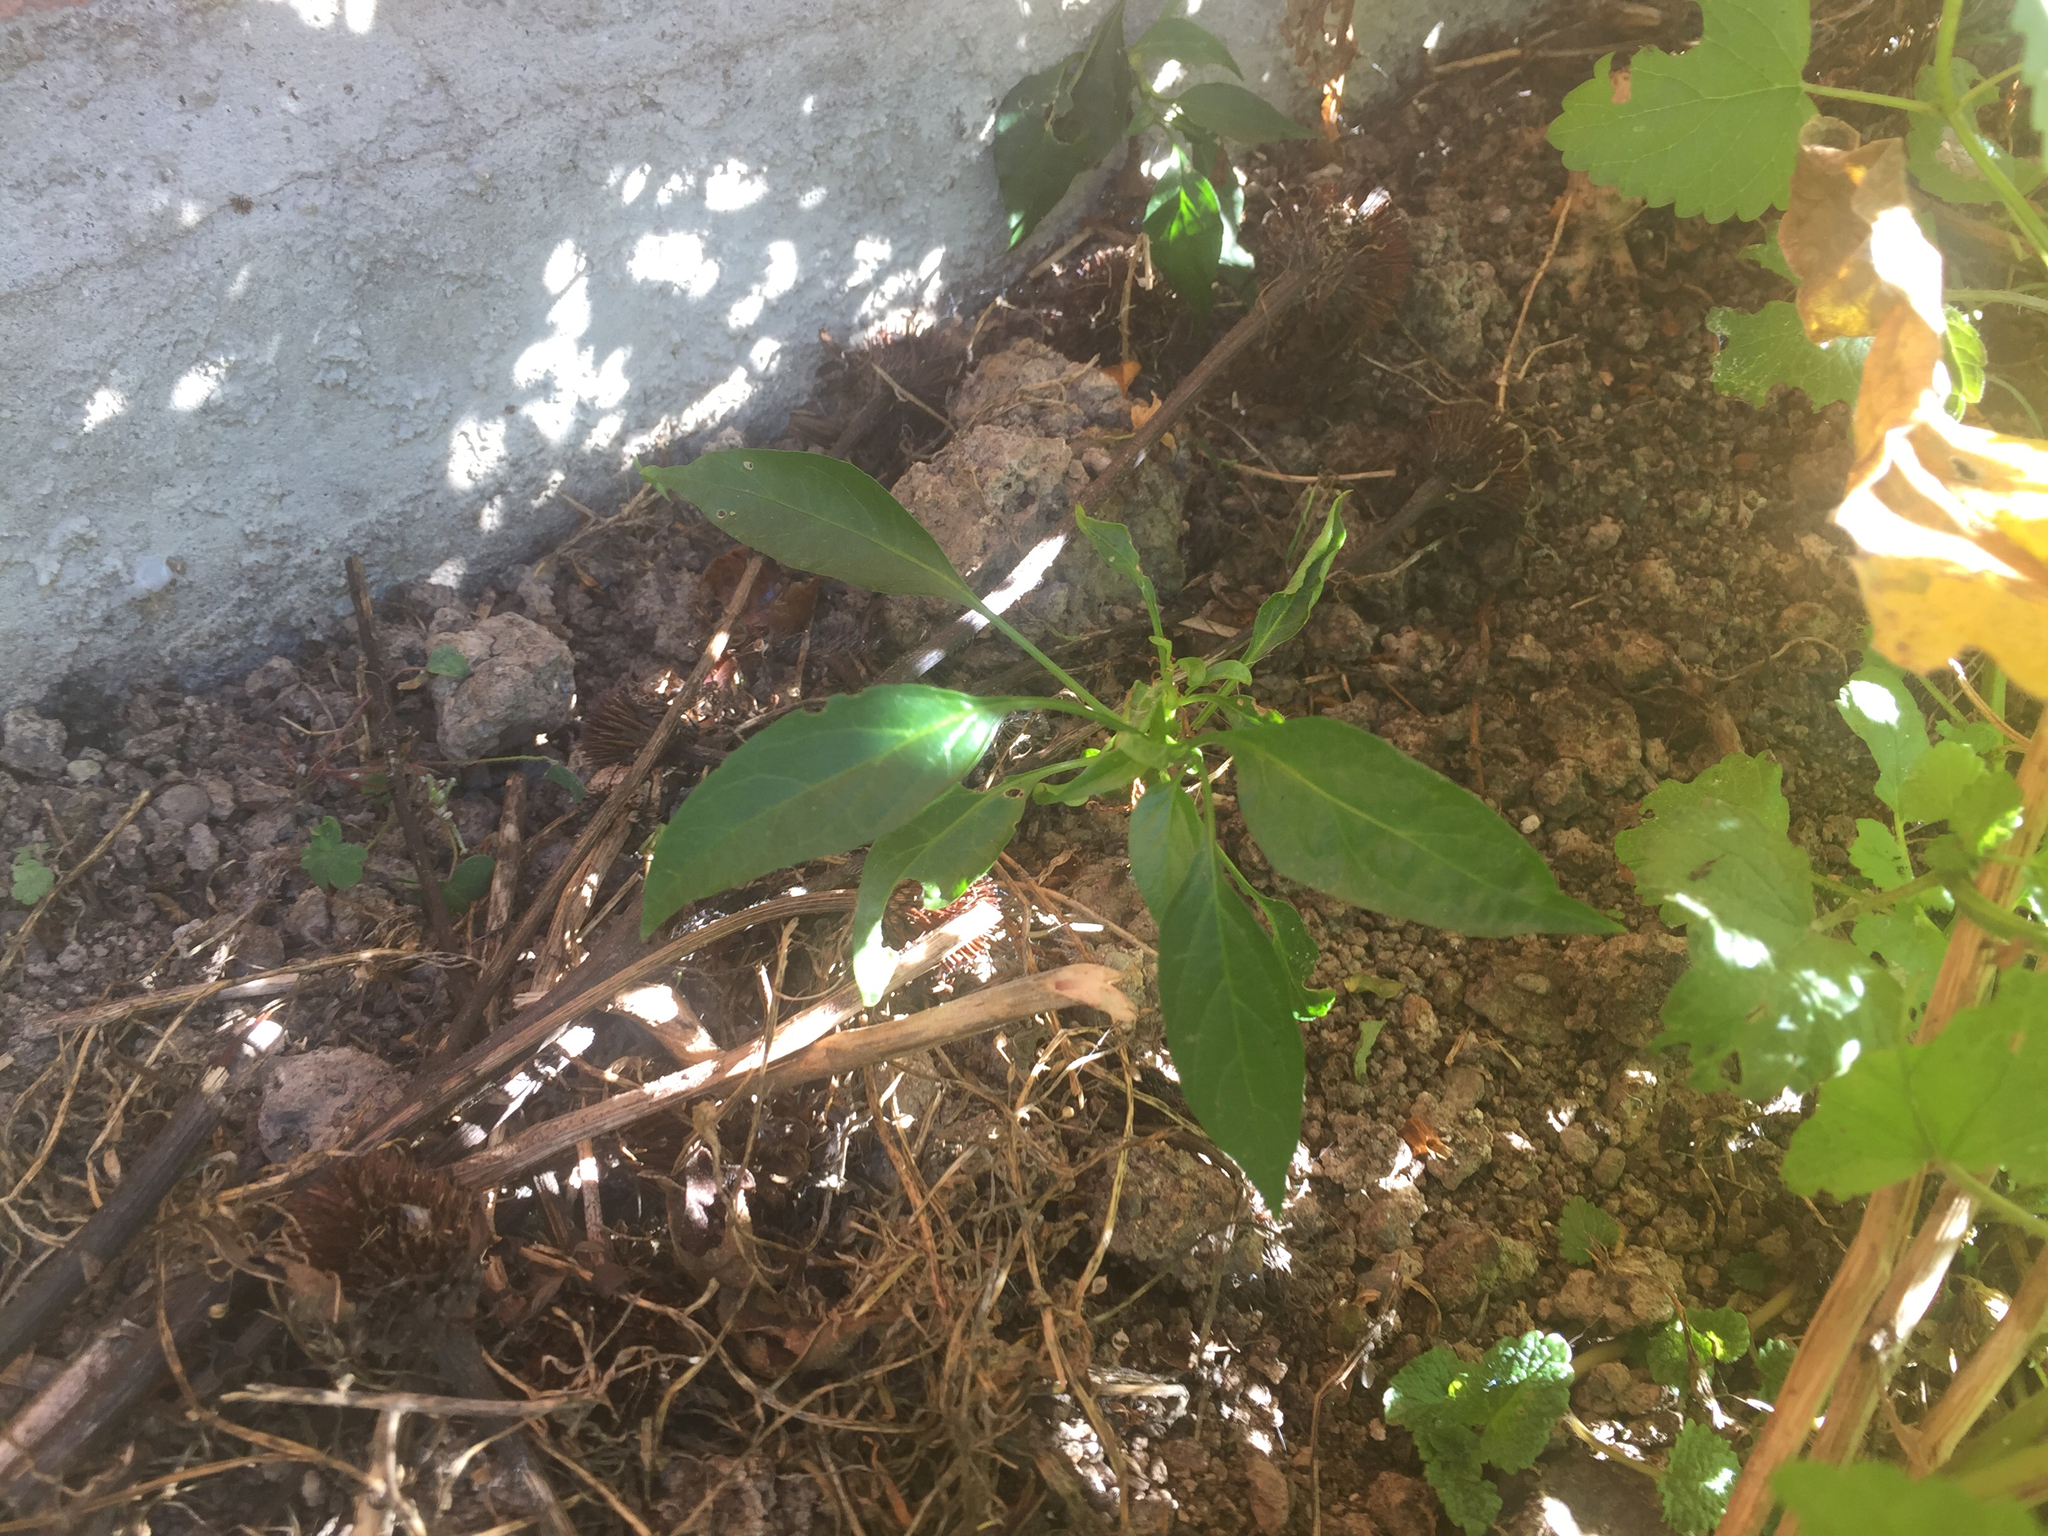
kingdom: Plantae
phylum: Tracheophyta
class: Magnoliopsida
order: Solanales
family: Solanaceae
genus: Capsicum
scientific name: Capsicum annuum
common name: Sweet pepper
